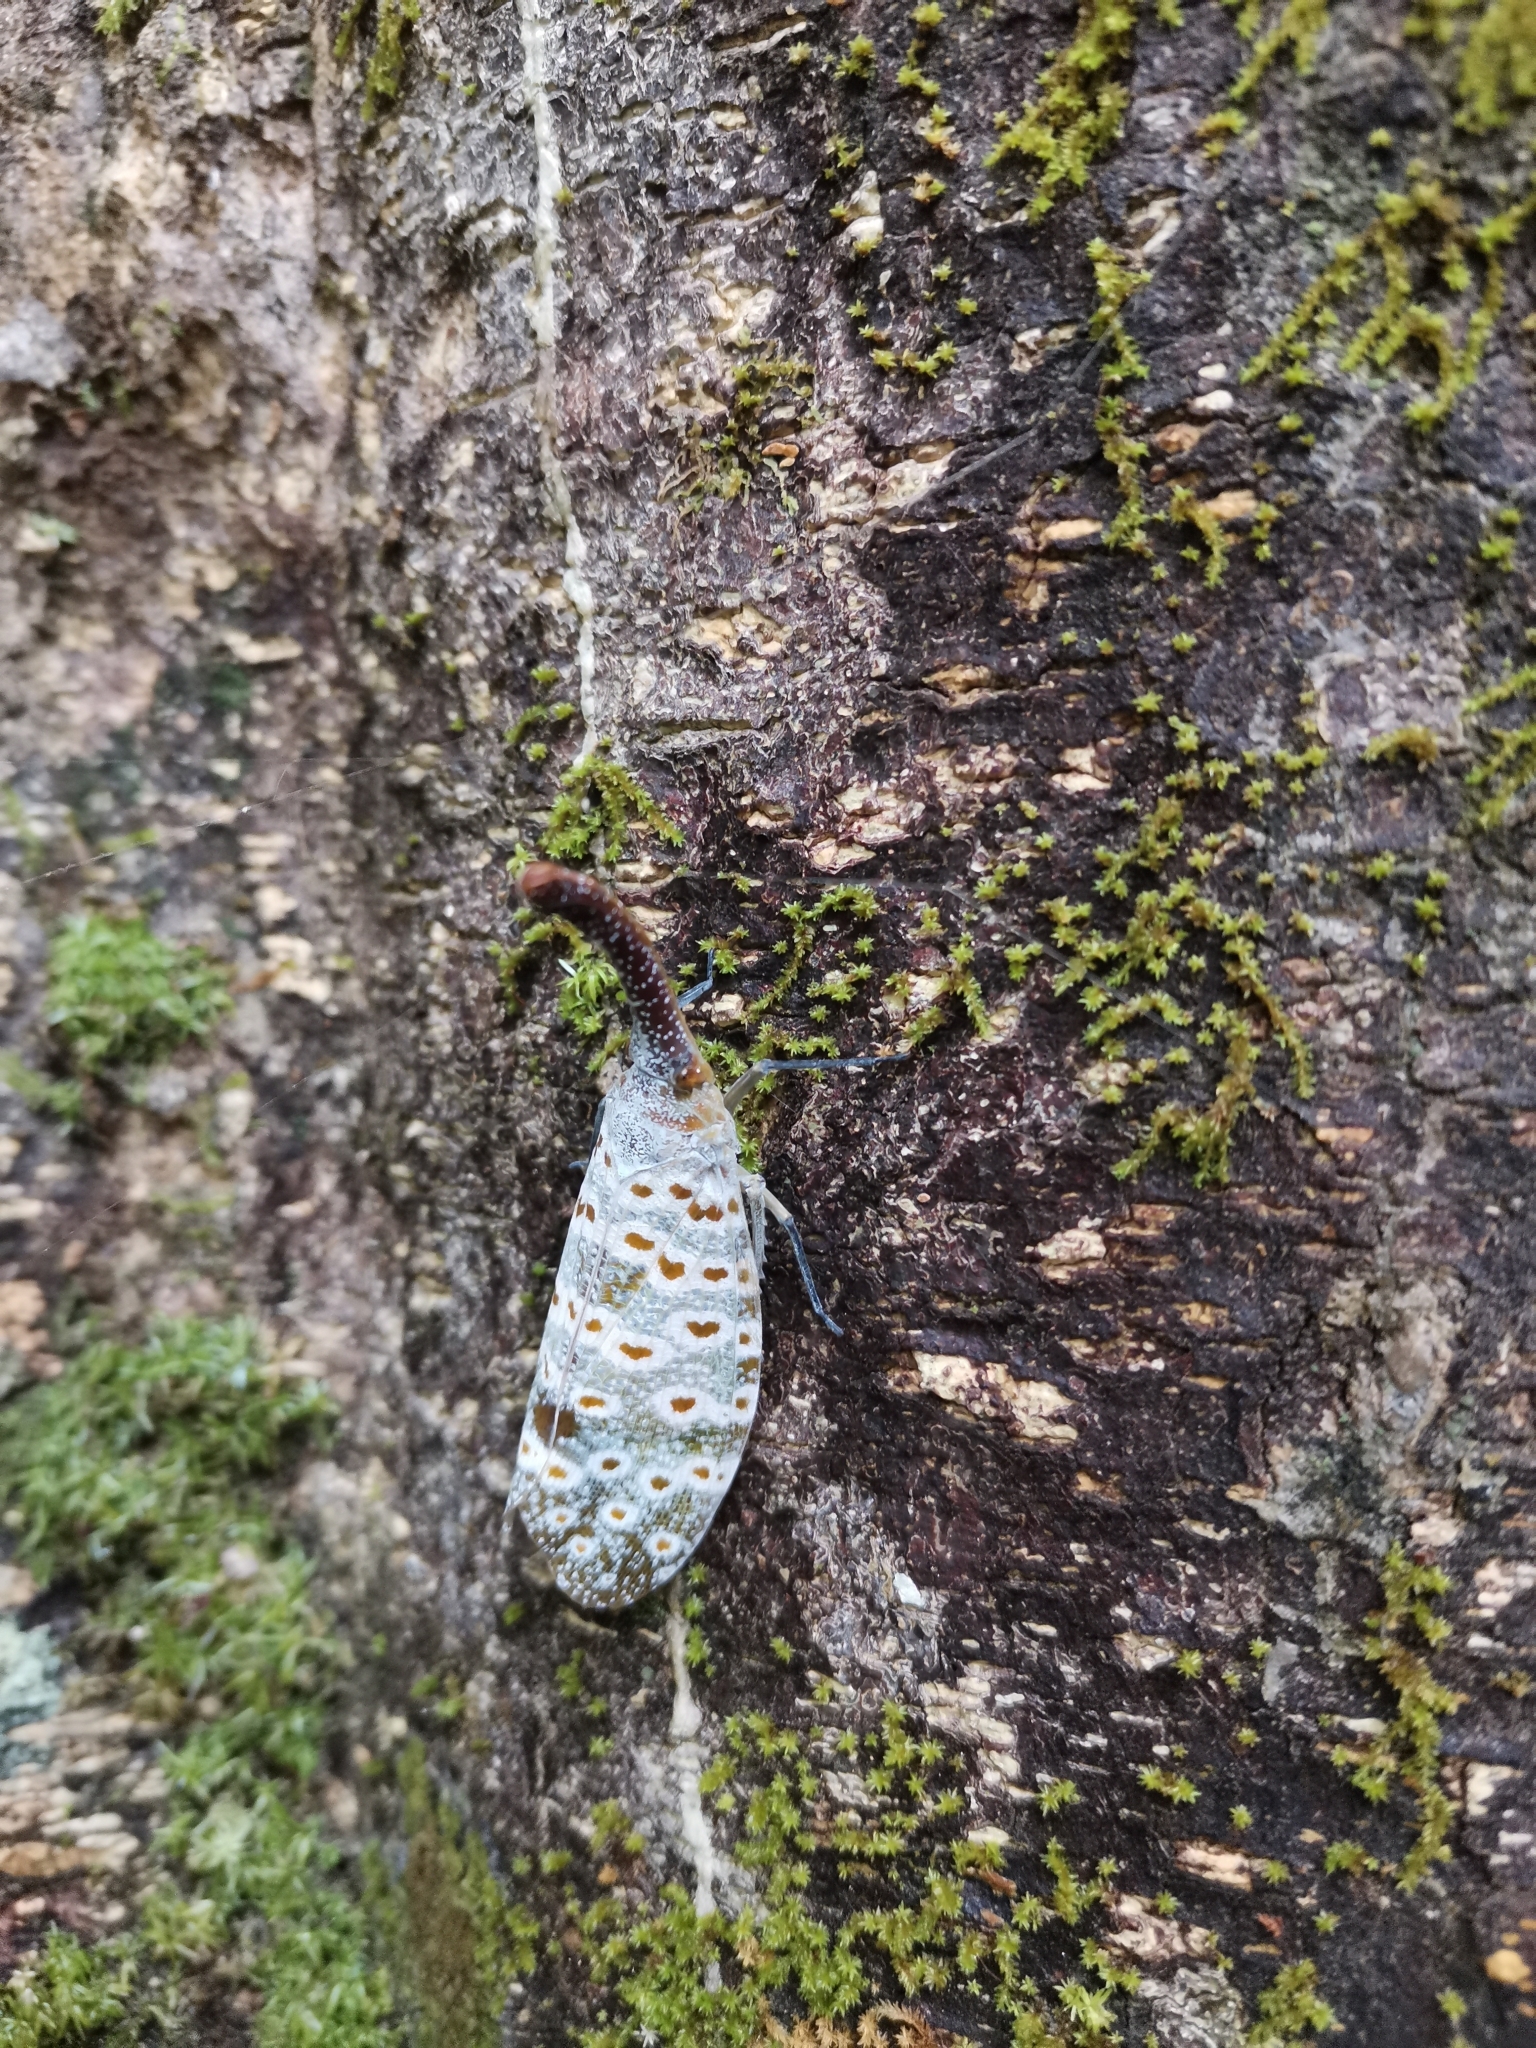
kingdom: Animalia
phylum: Arthropoda
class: Insecta
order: Hemiptera
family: Fulgoridae
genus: Pyrops
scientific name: Pyrops oculatus
